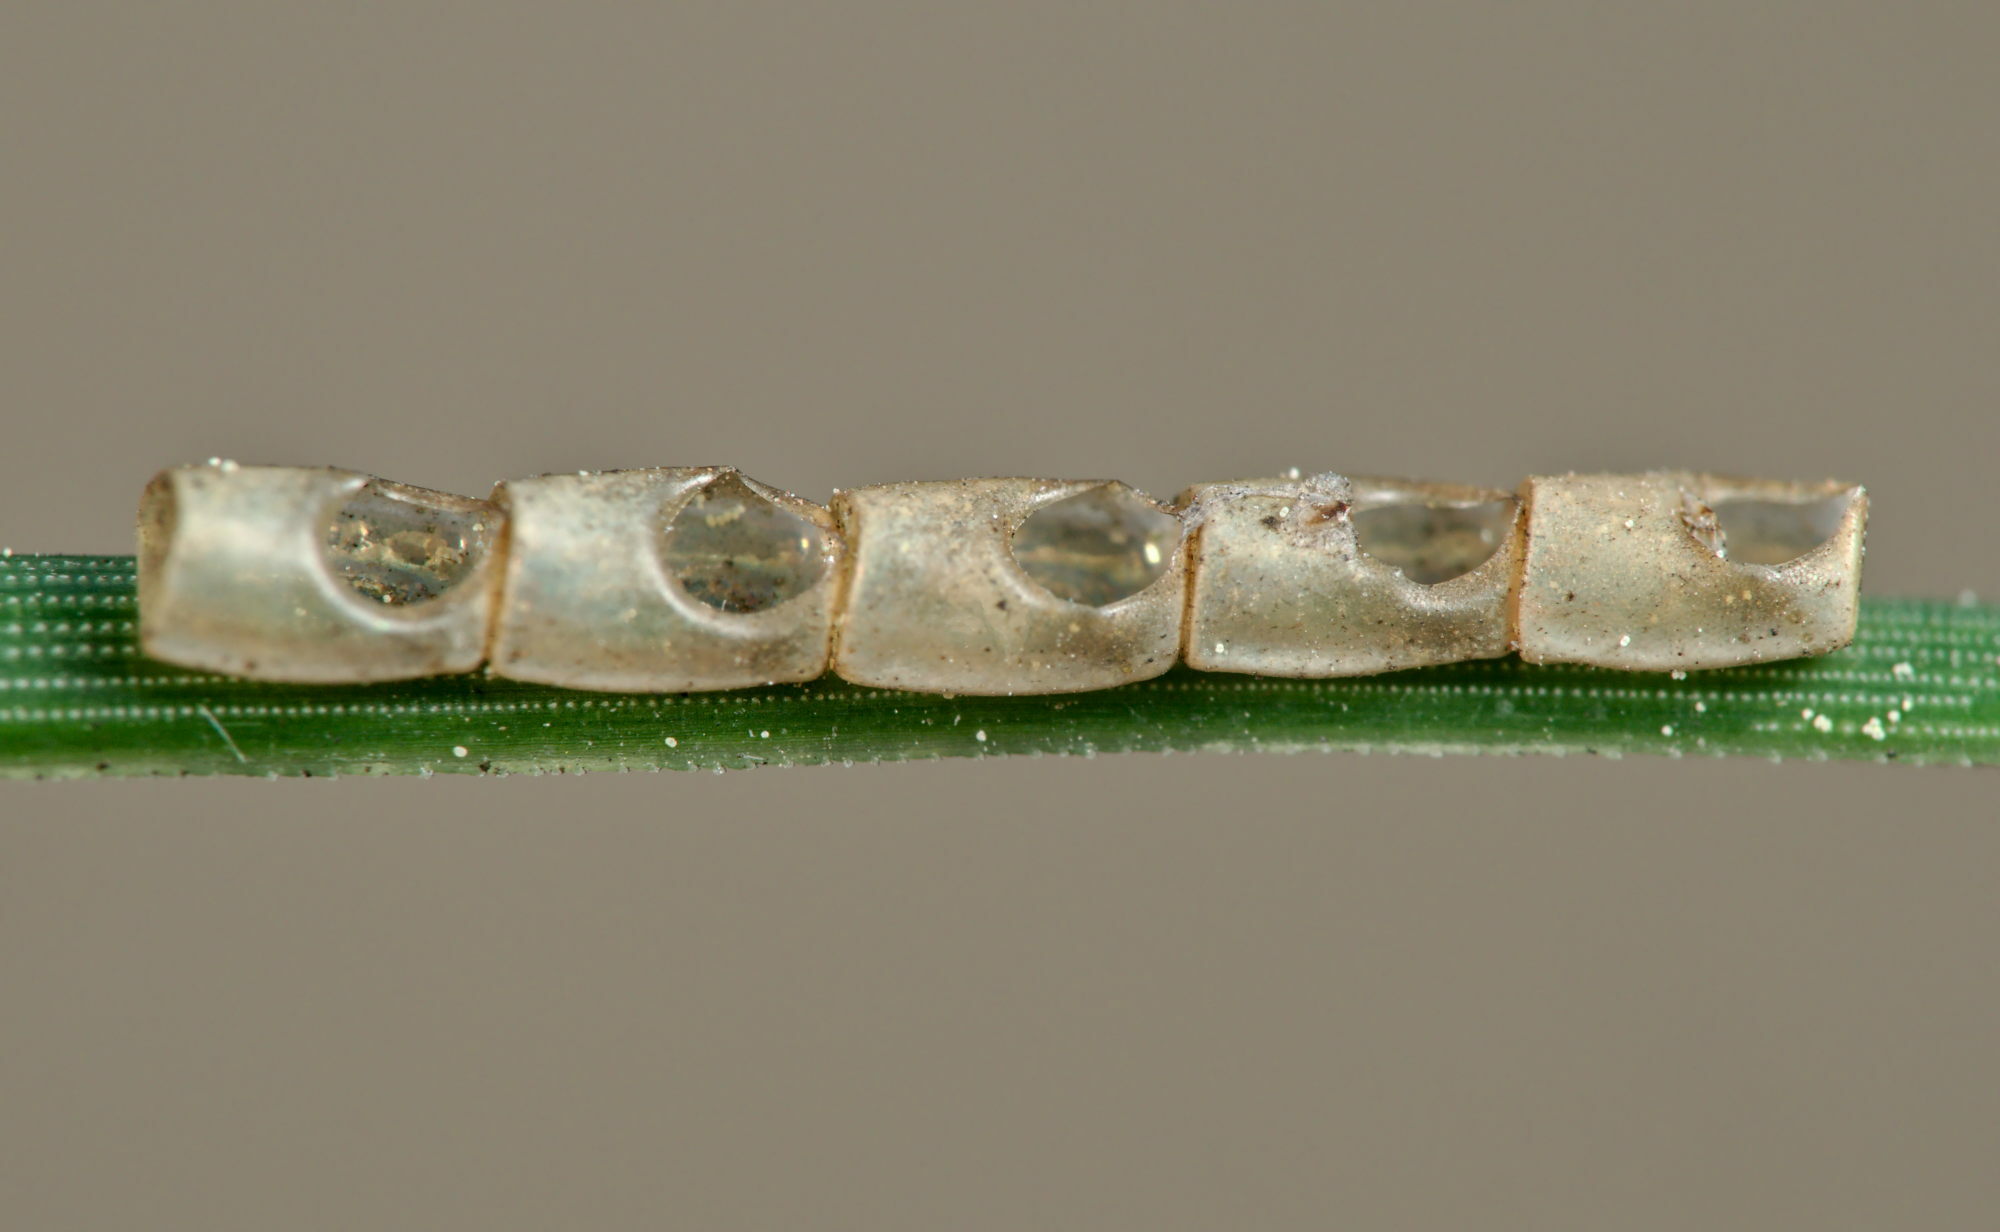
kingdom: Animalia
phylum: Arthropoda
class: Insecta
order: Hemiptera
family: Coreidae
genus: Leptoglossus
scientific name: Leptoglossus occidentalis
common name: Western conifer-seed bug
